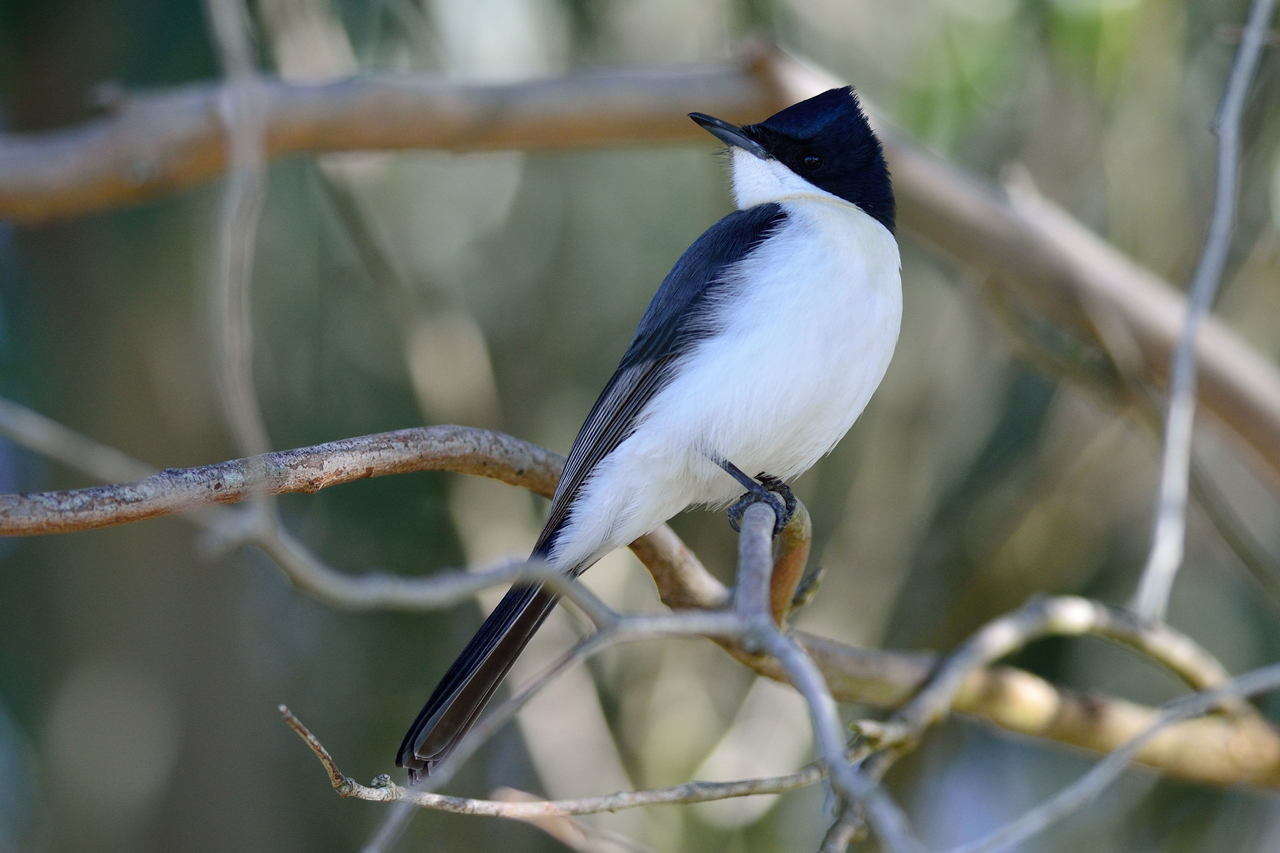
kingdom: Animalia
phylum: Chordata
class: Aves
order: Passeriformes
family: Monarchidae
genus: Myiagra
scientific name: Myiagra inquieta
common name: Restless flycatcher
